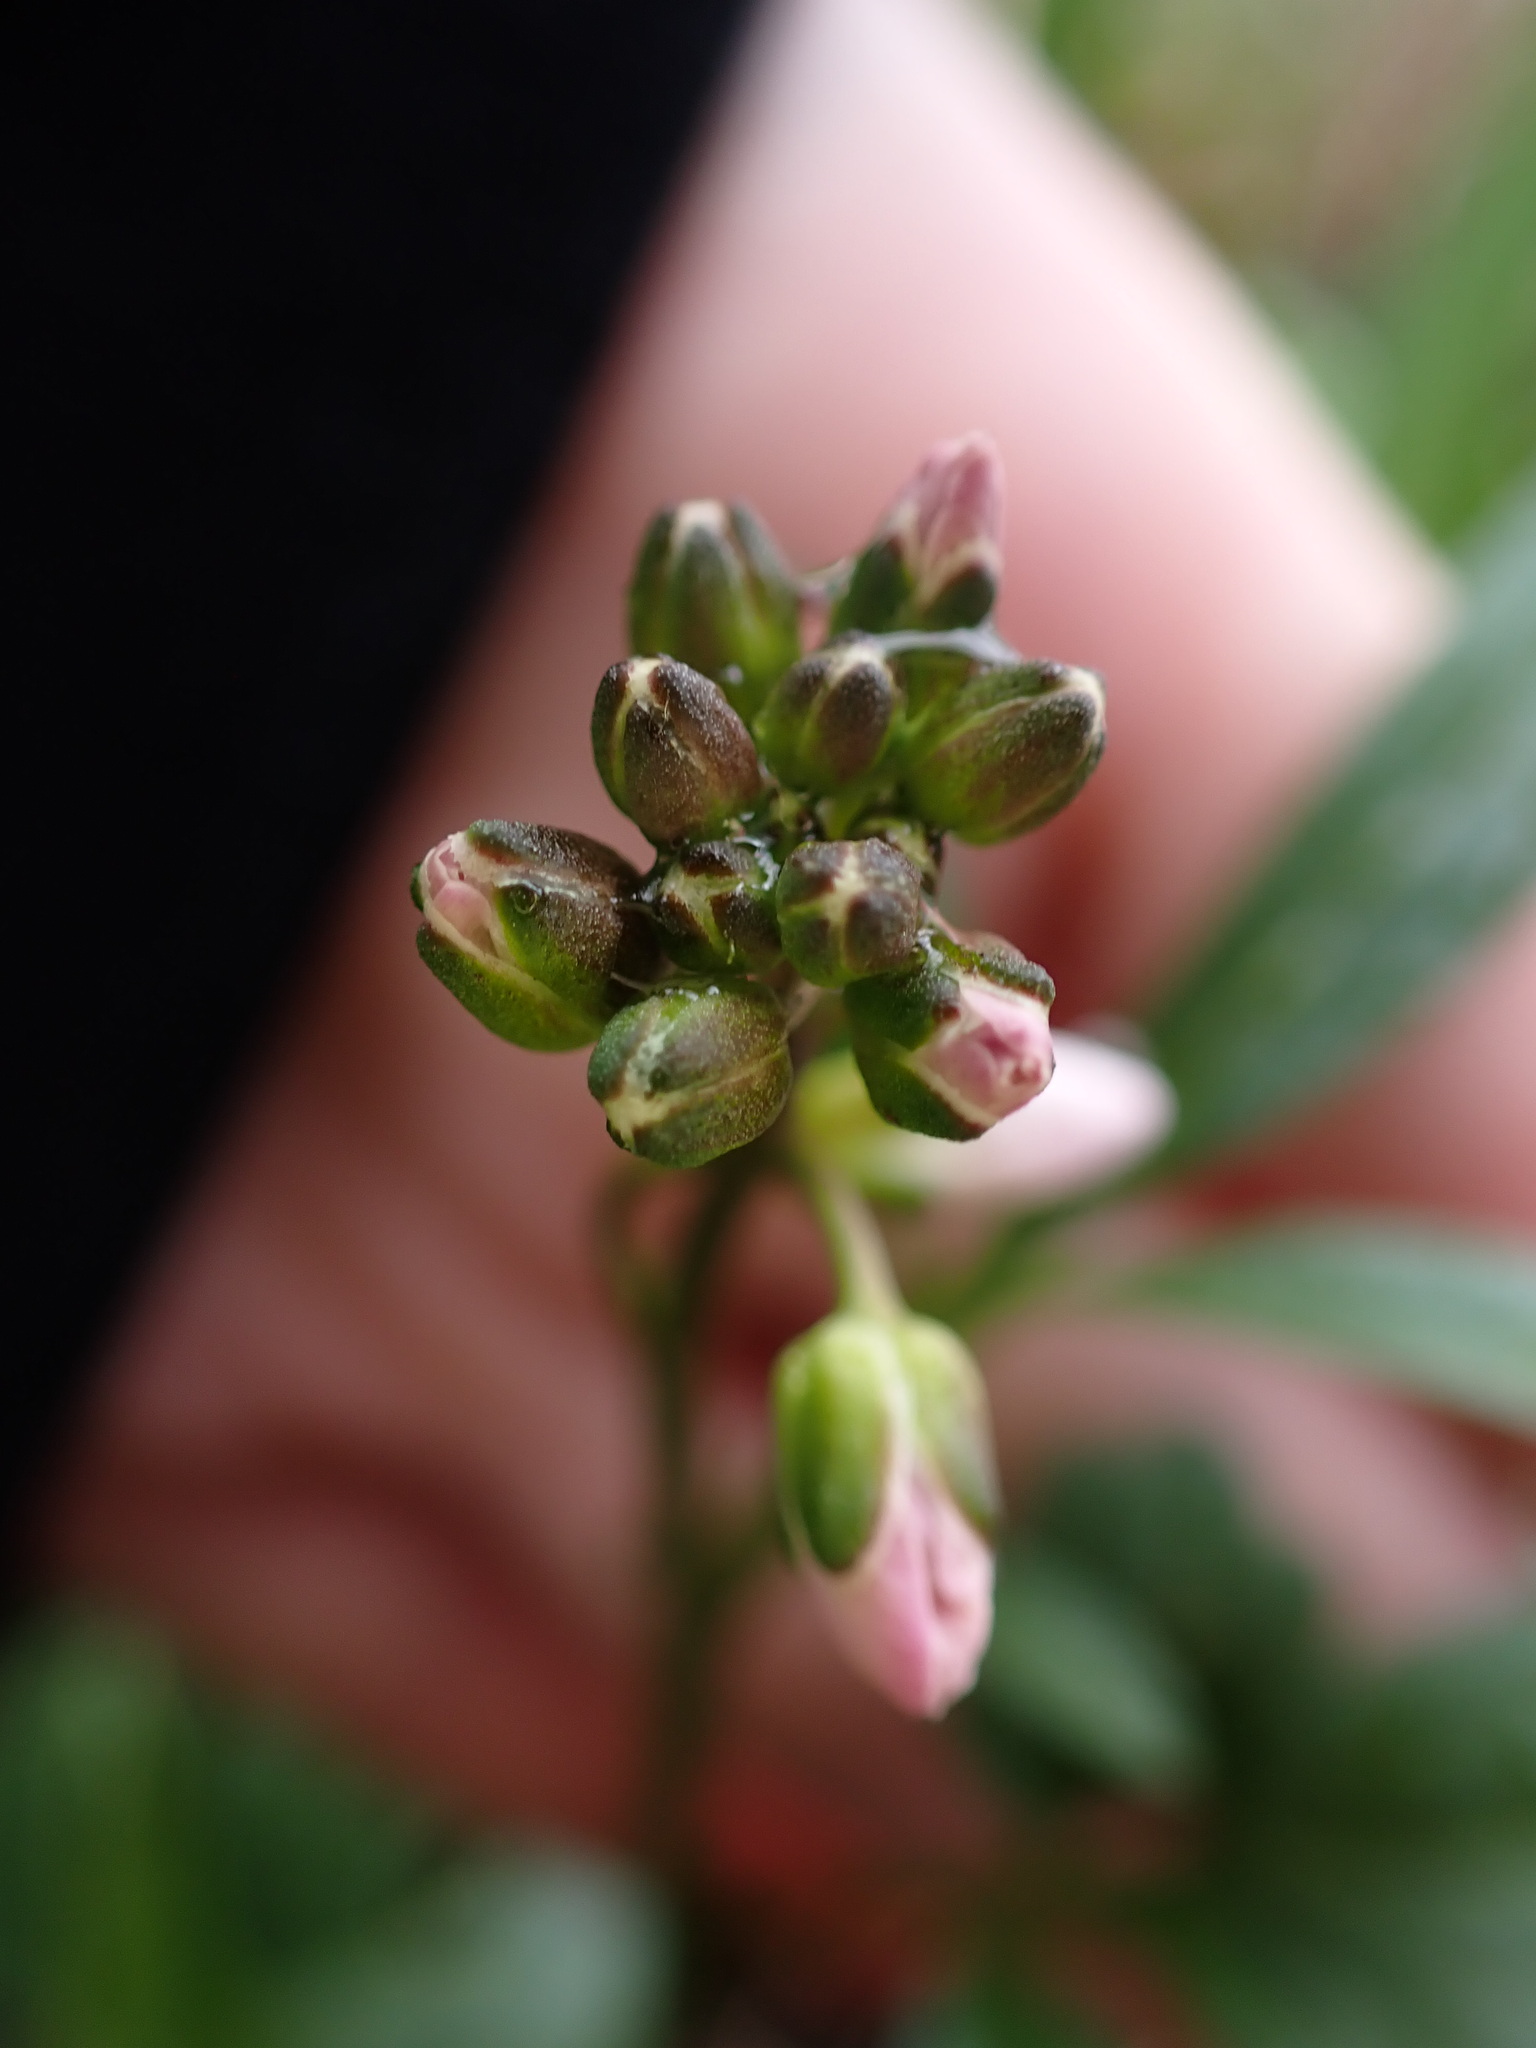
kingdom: Plantae
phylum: Tracheophyta
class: Magnoliopsida
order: Brassicales
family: Brassicaceae
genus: Cardamine
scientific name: Cardamine nuttallii
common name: Nuttall's toothwort
